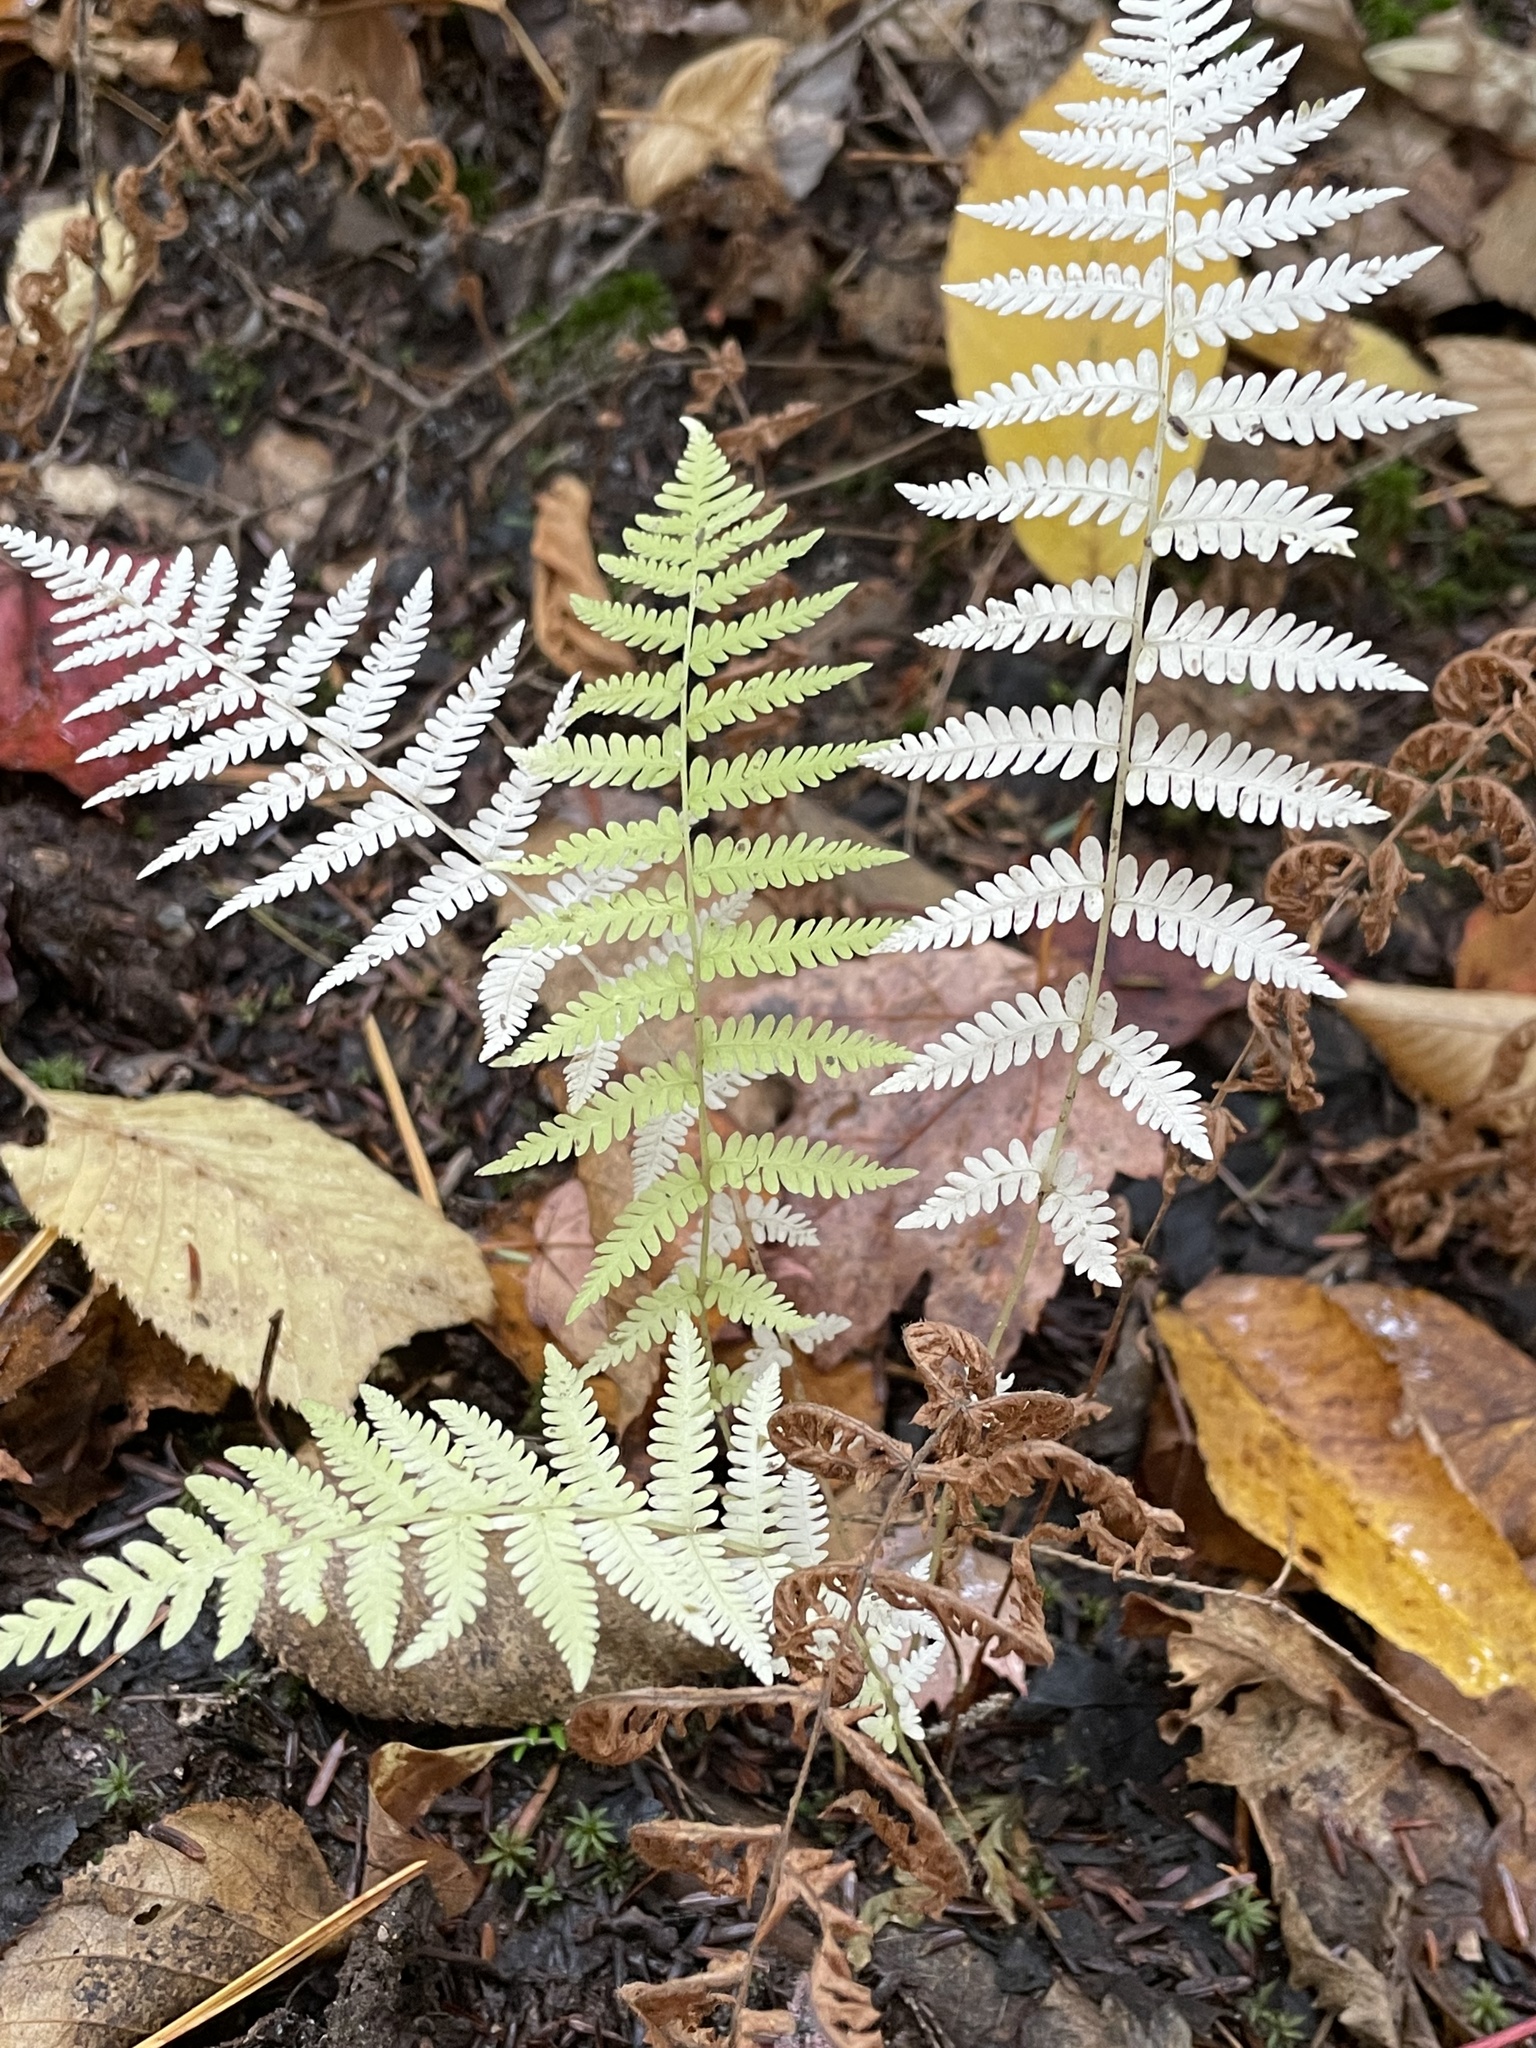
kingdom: Plantae
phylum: Tracheophyta
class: Polypodiopsida
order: Polypodiales
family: Thelypteridaceae
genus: Amauropelta
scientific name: Amauropelta noveboracensis
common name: New york fern
